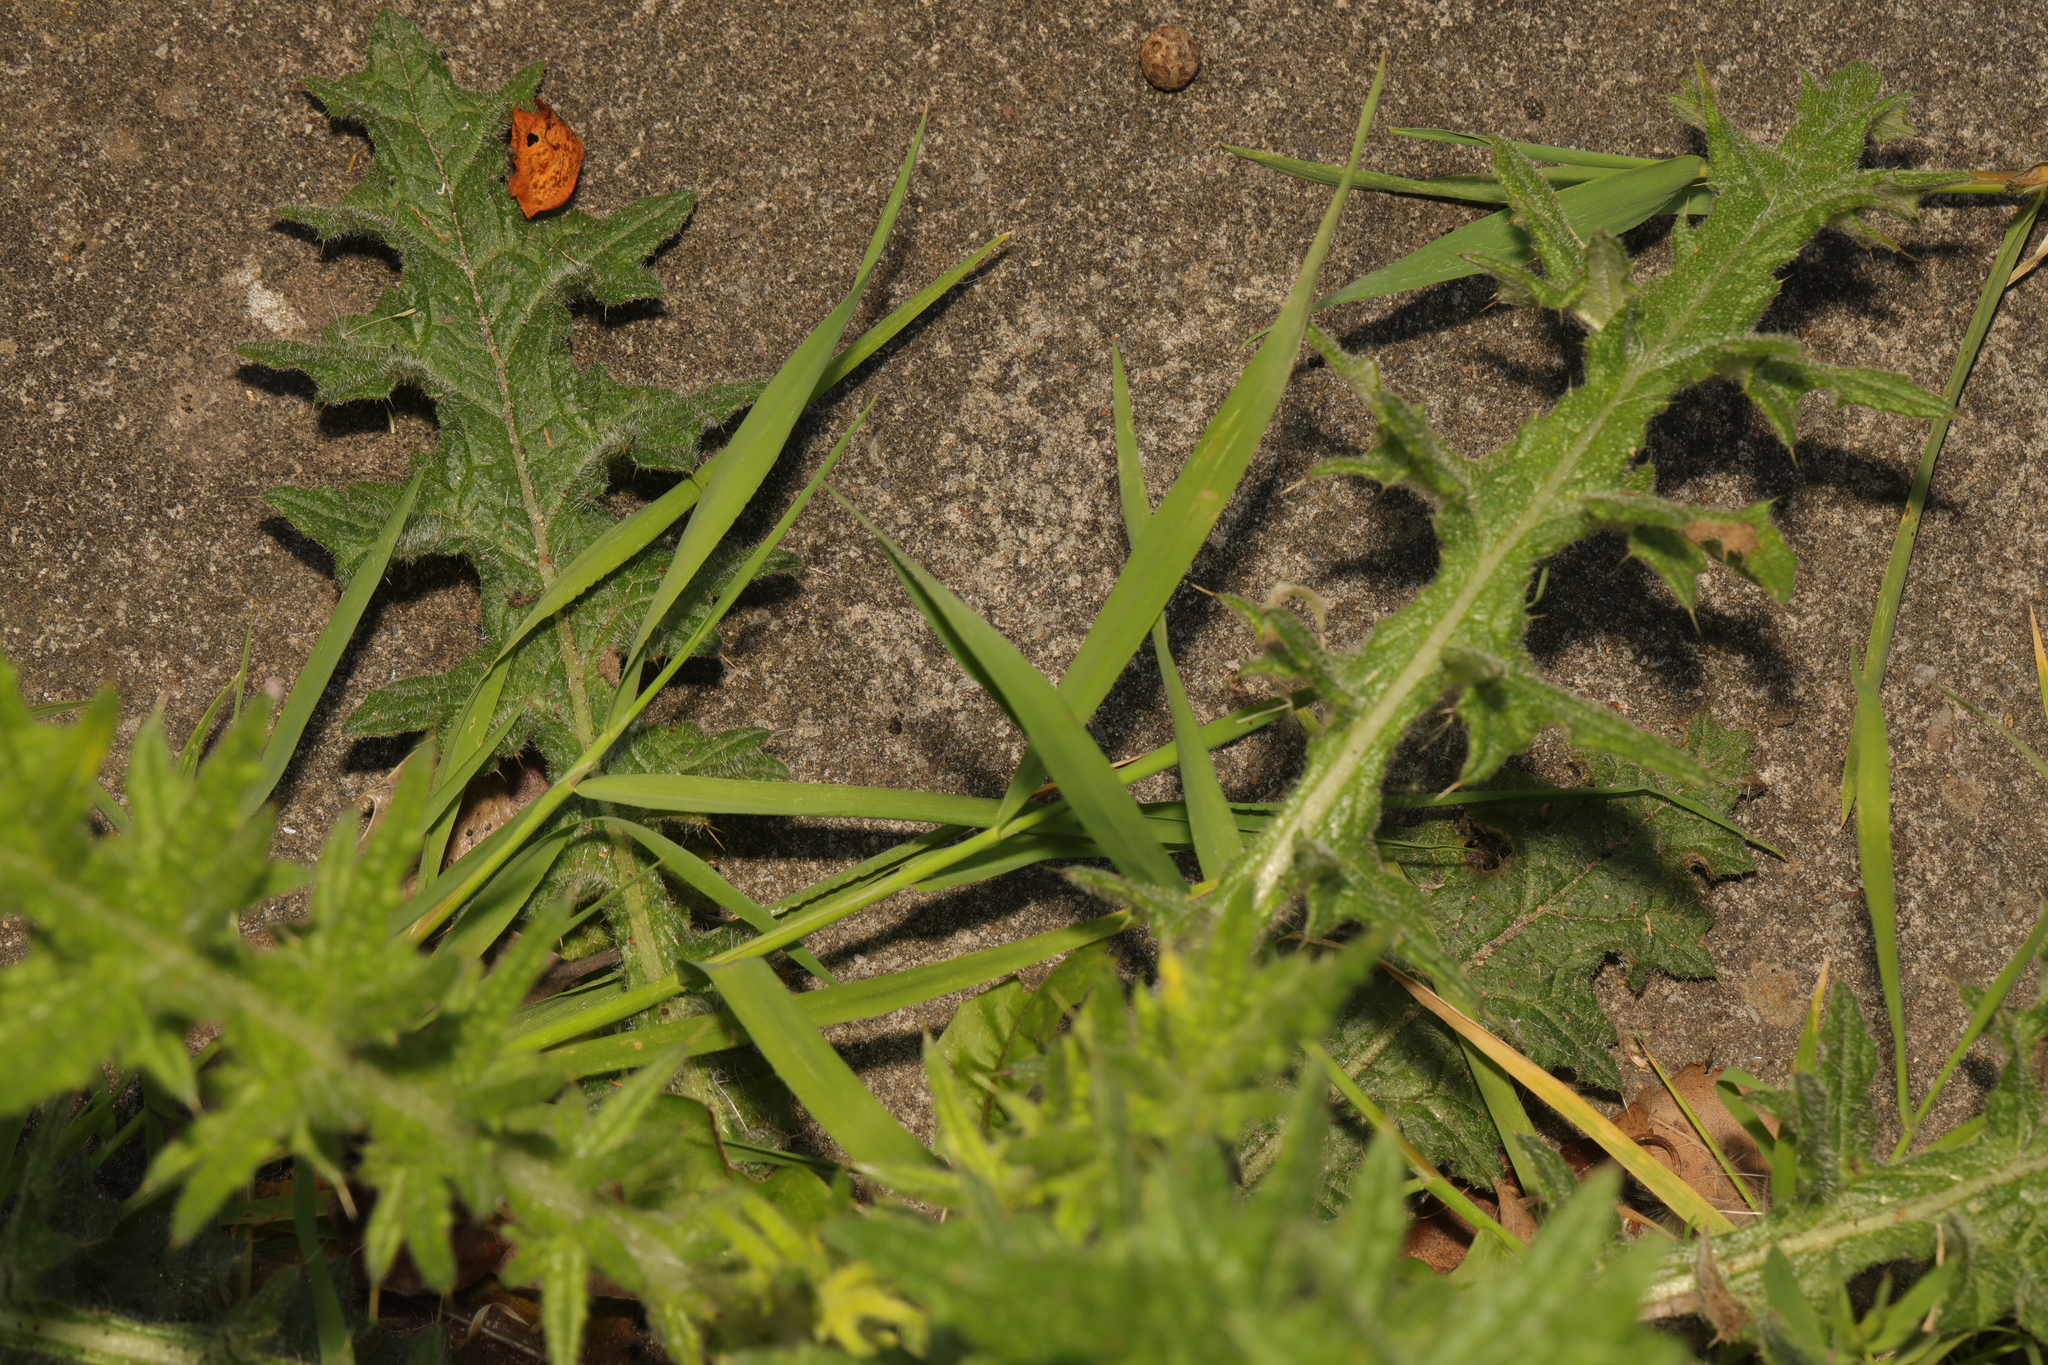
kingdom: Plantae
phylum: Tracheophyta
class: Magnoliopsida
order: Asterales
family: Asteraceae
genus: Cirsium
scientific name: Cirsium vulgare
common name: Bull thistle
